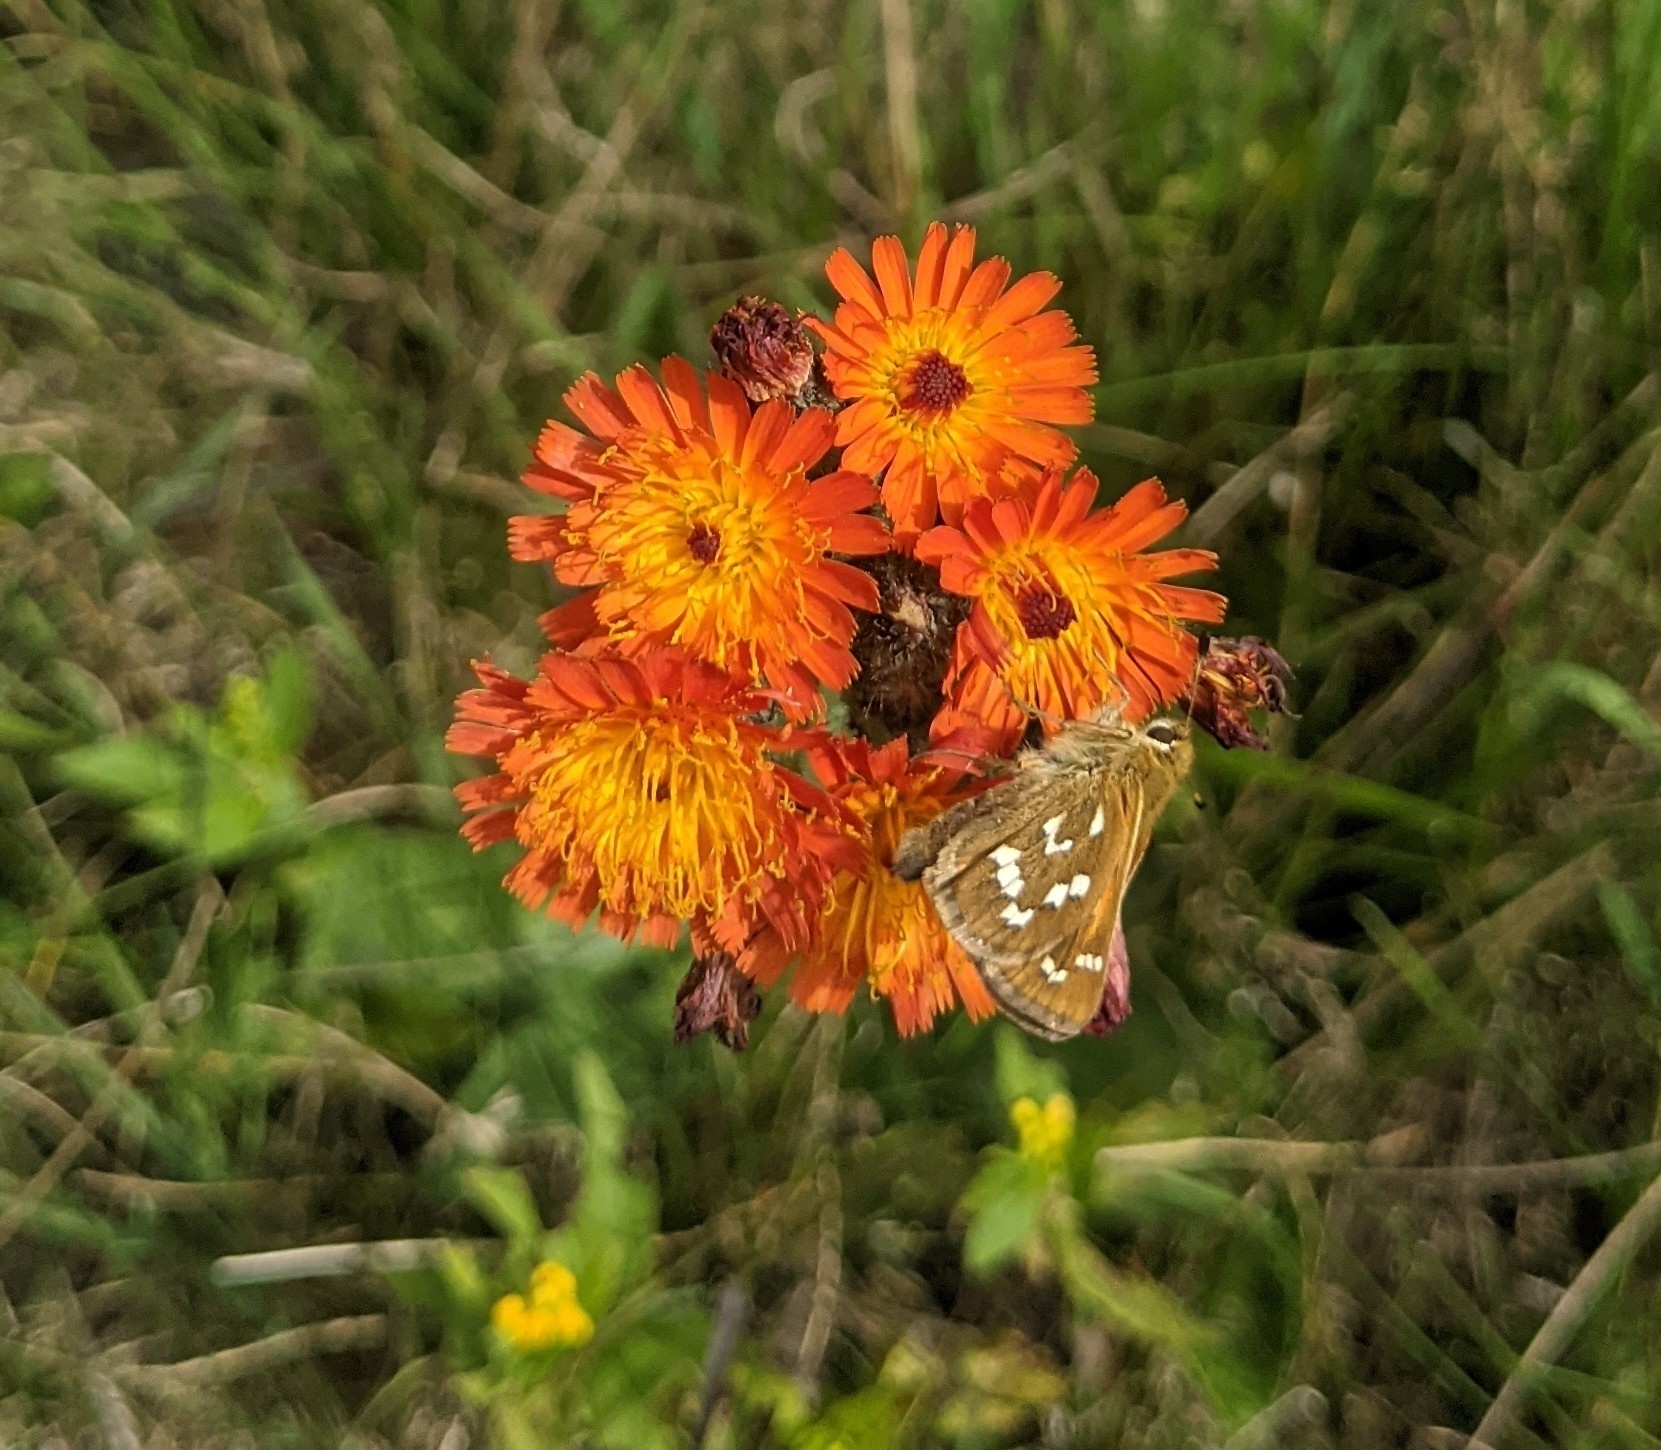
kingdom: Plantae
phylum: Tracheophyta
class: Magnoliopsida
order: Asterales
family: Asteraceae
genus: Pilosella
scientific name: Pilosella aurantiaca
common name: Fox-and-cubs
